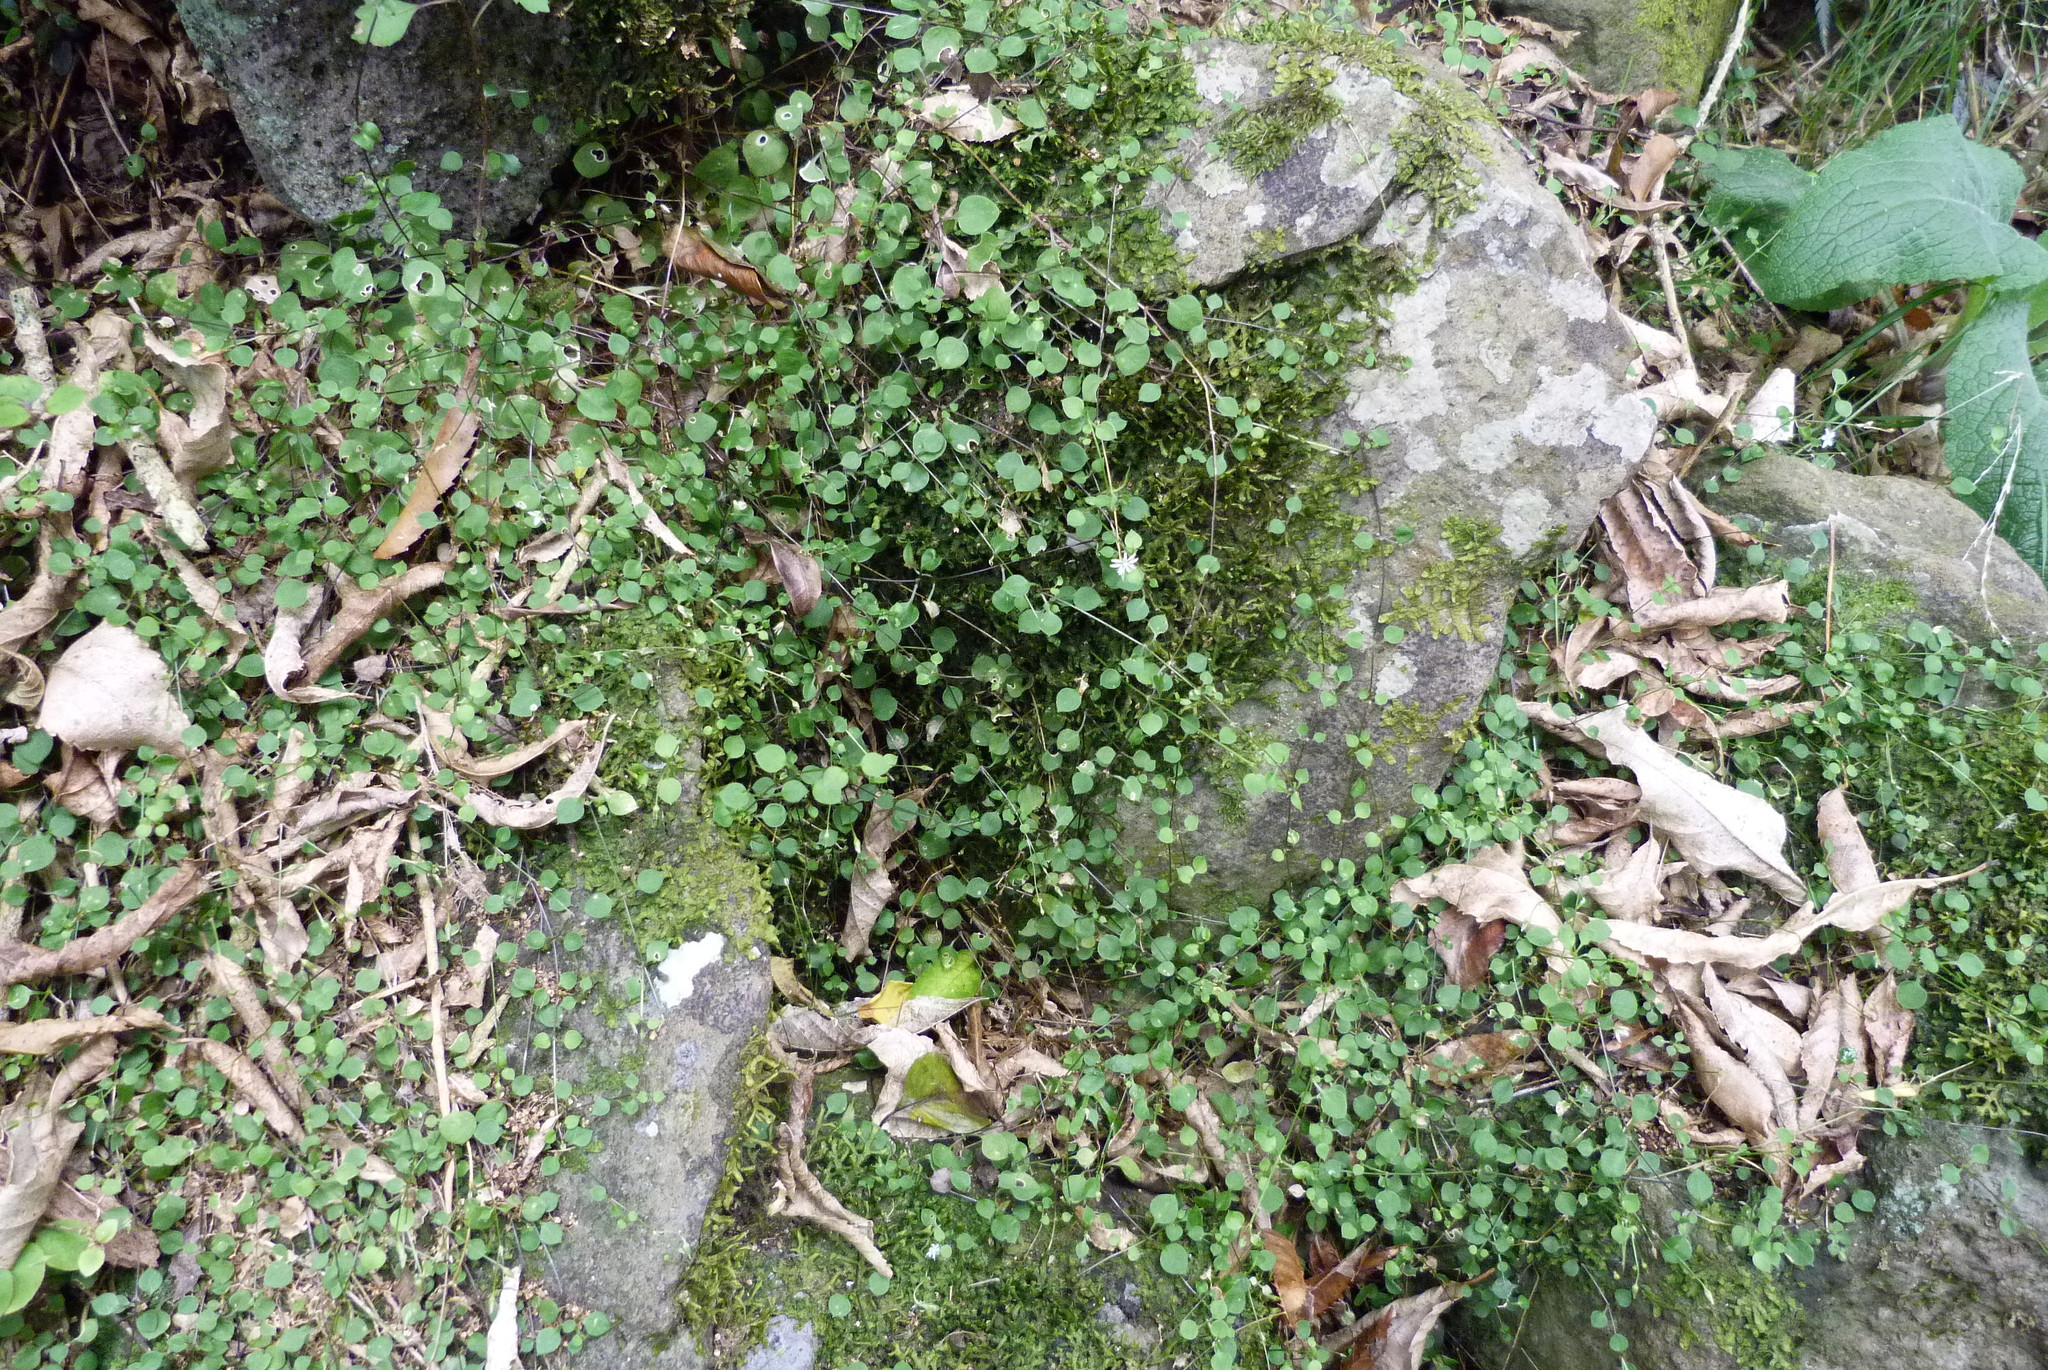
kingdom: Plantae
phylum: Tracheophyta
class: Magnoliopsida
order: Caryophyllales
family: Caryophyllaceae
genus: Stellaria
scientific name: Stellaria parviflora
